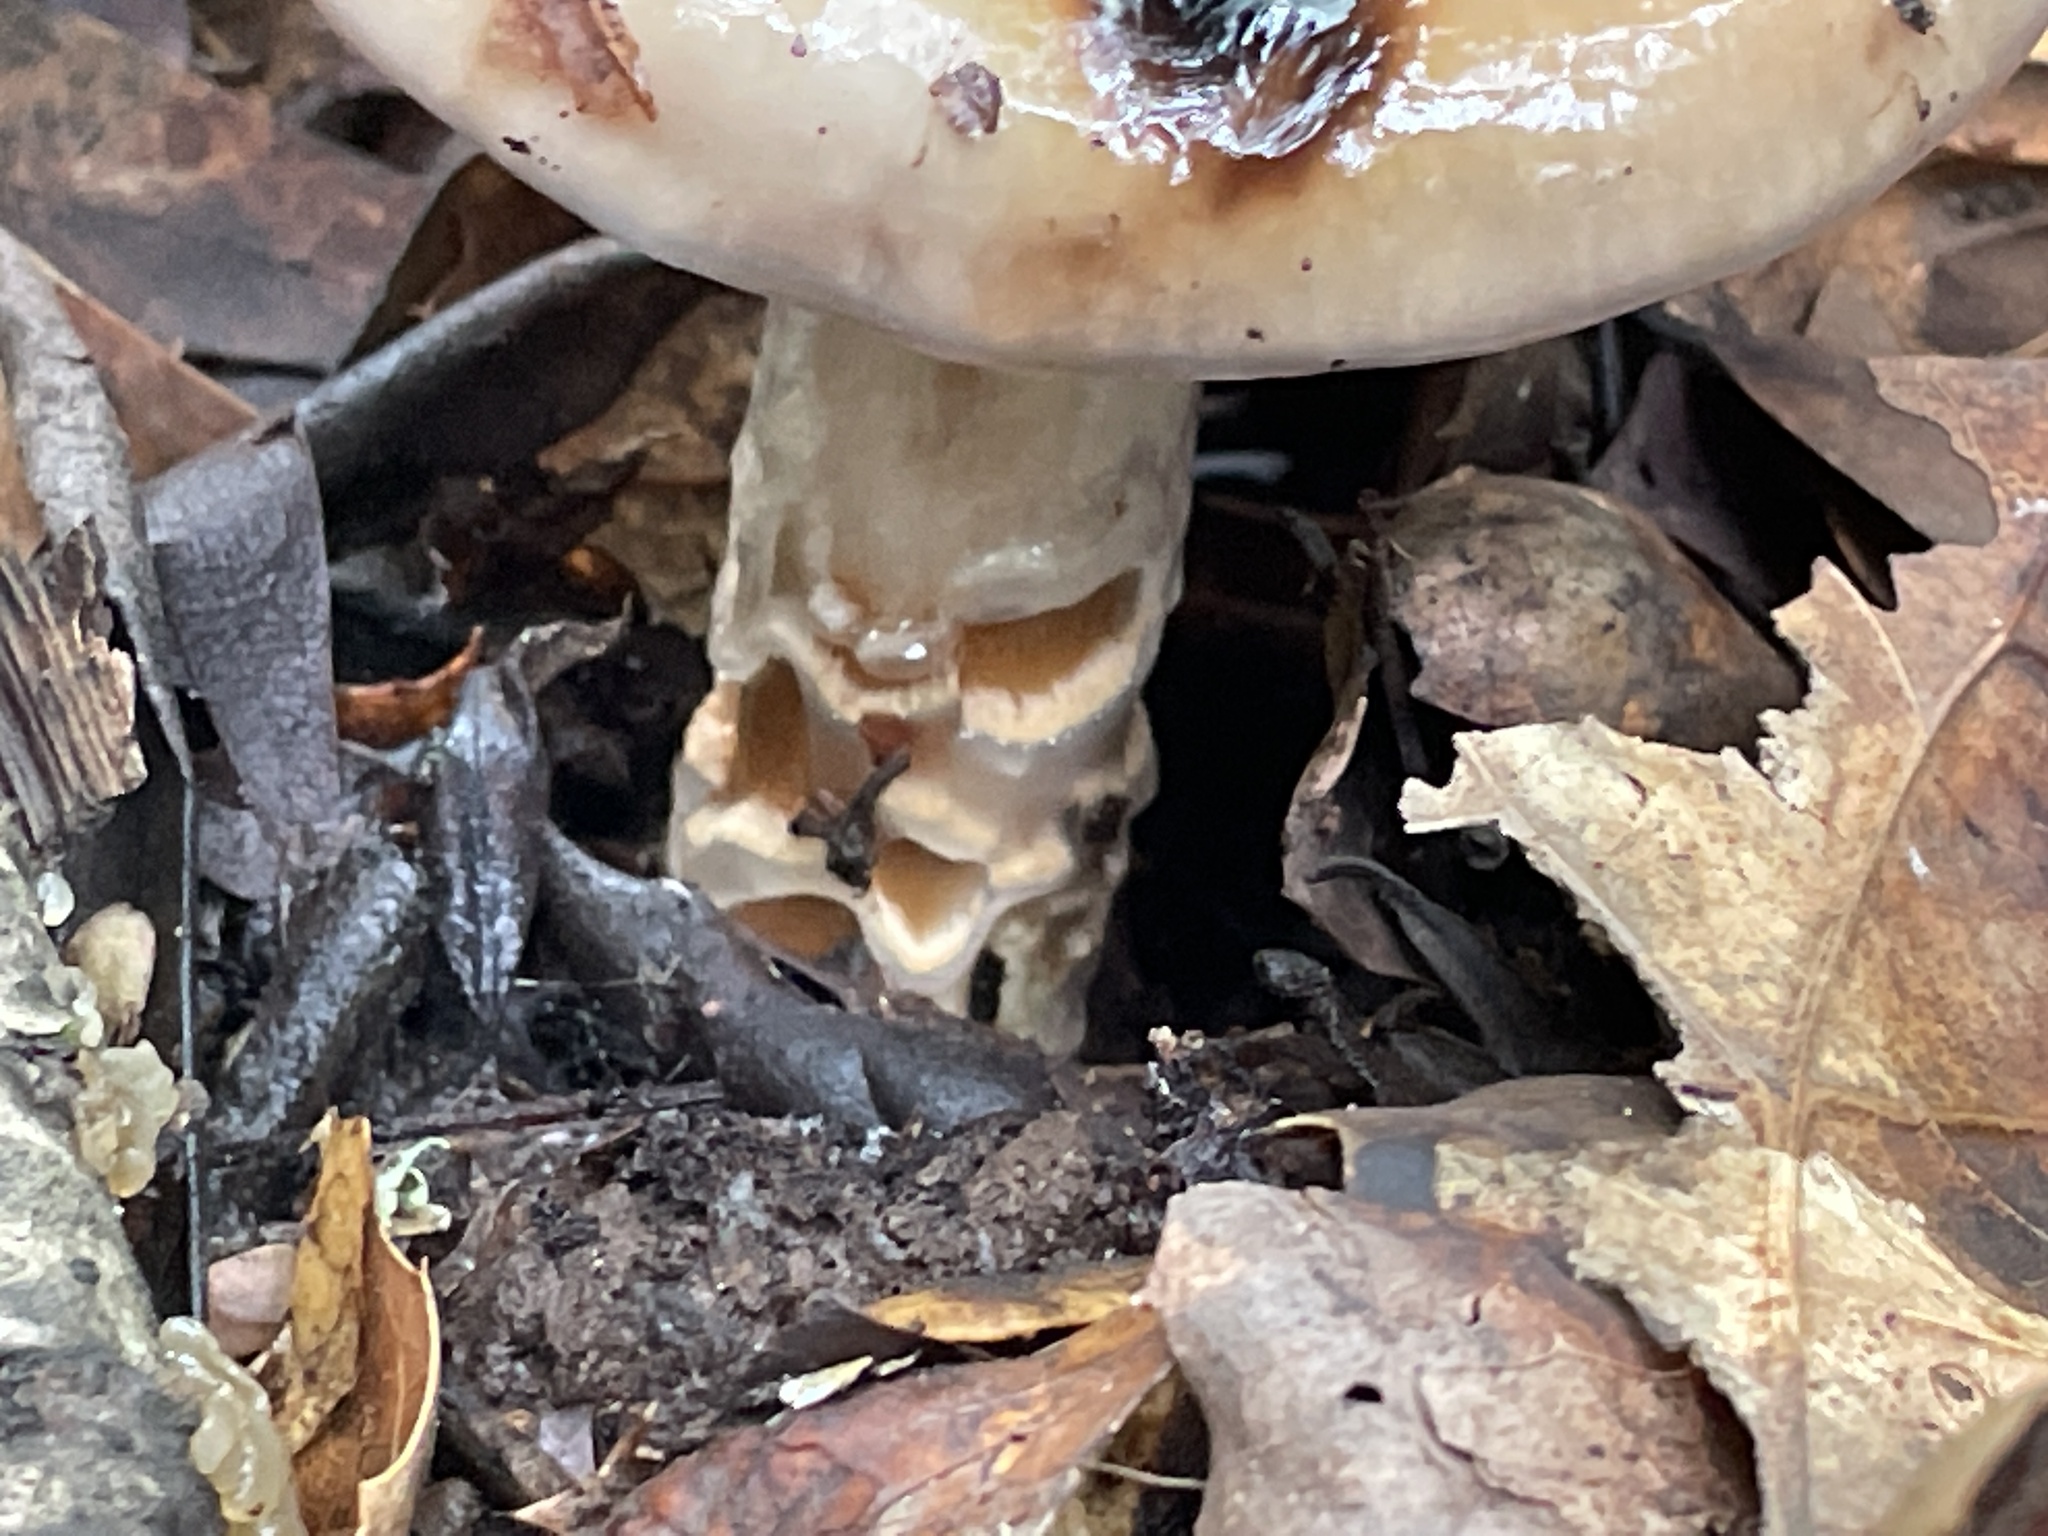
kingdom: Fungi
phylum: Basidiomycota
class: Agaricomycetes
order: Agaricales
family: Cortinariaceae
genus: Cortinarius
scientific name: Cortinarius glutinosoarmillatus
